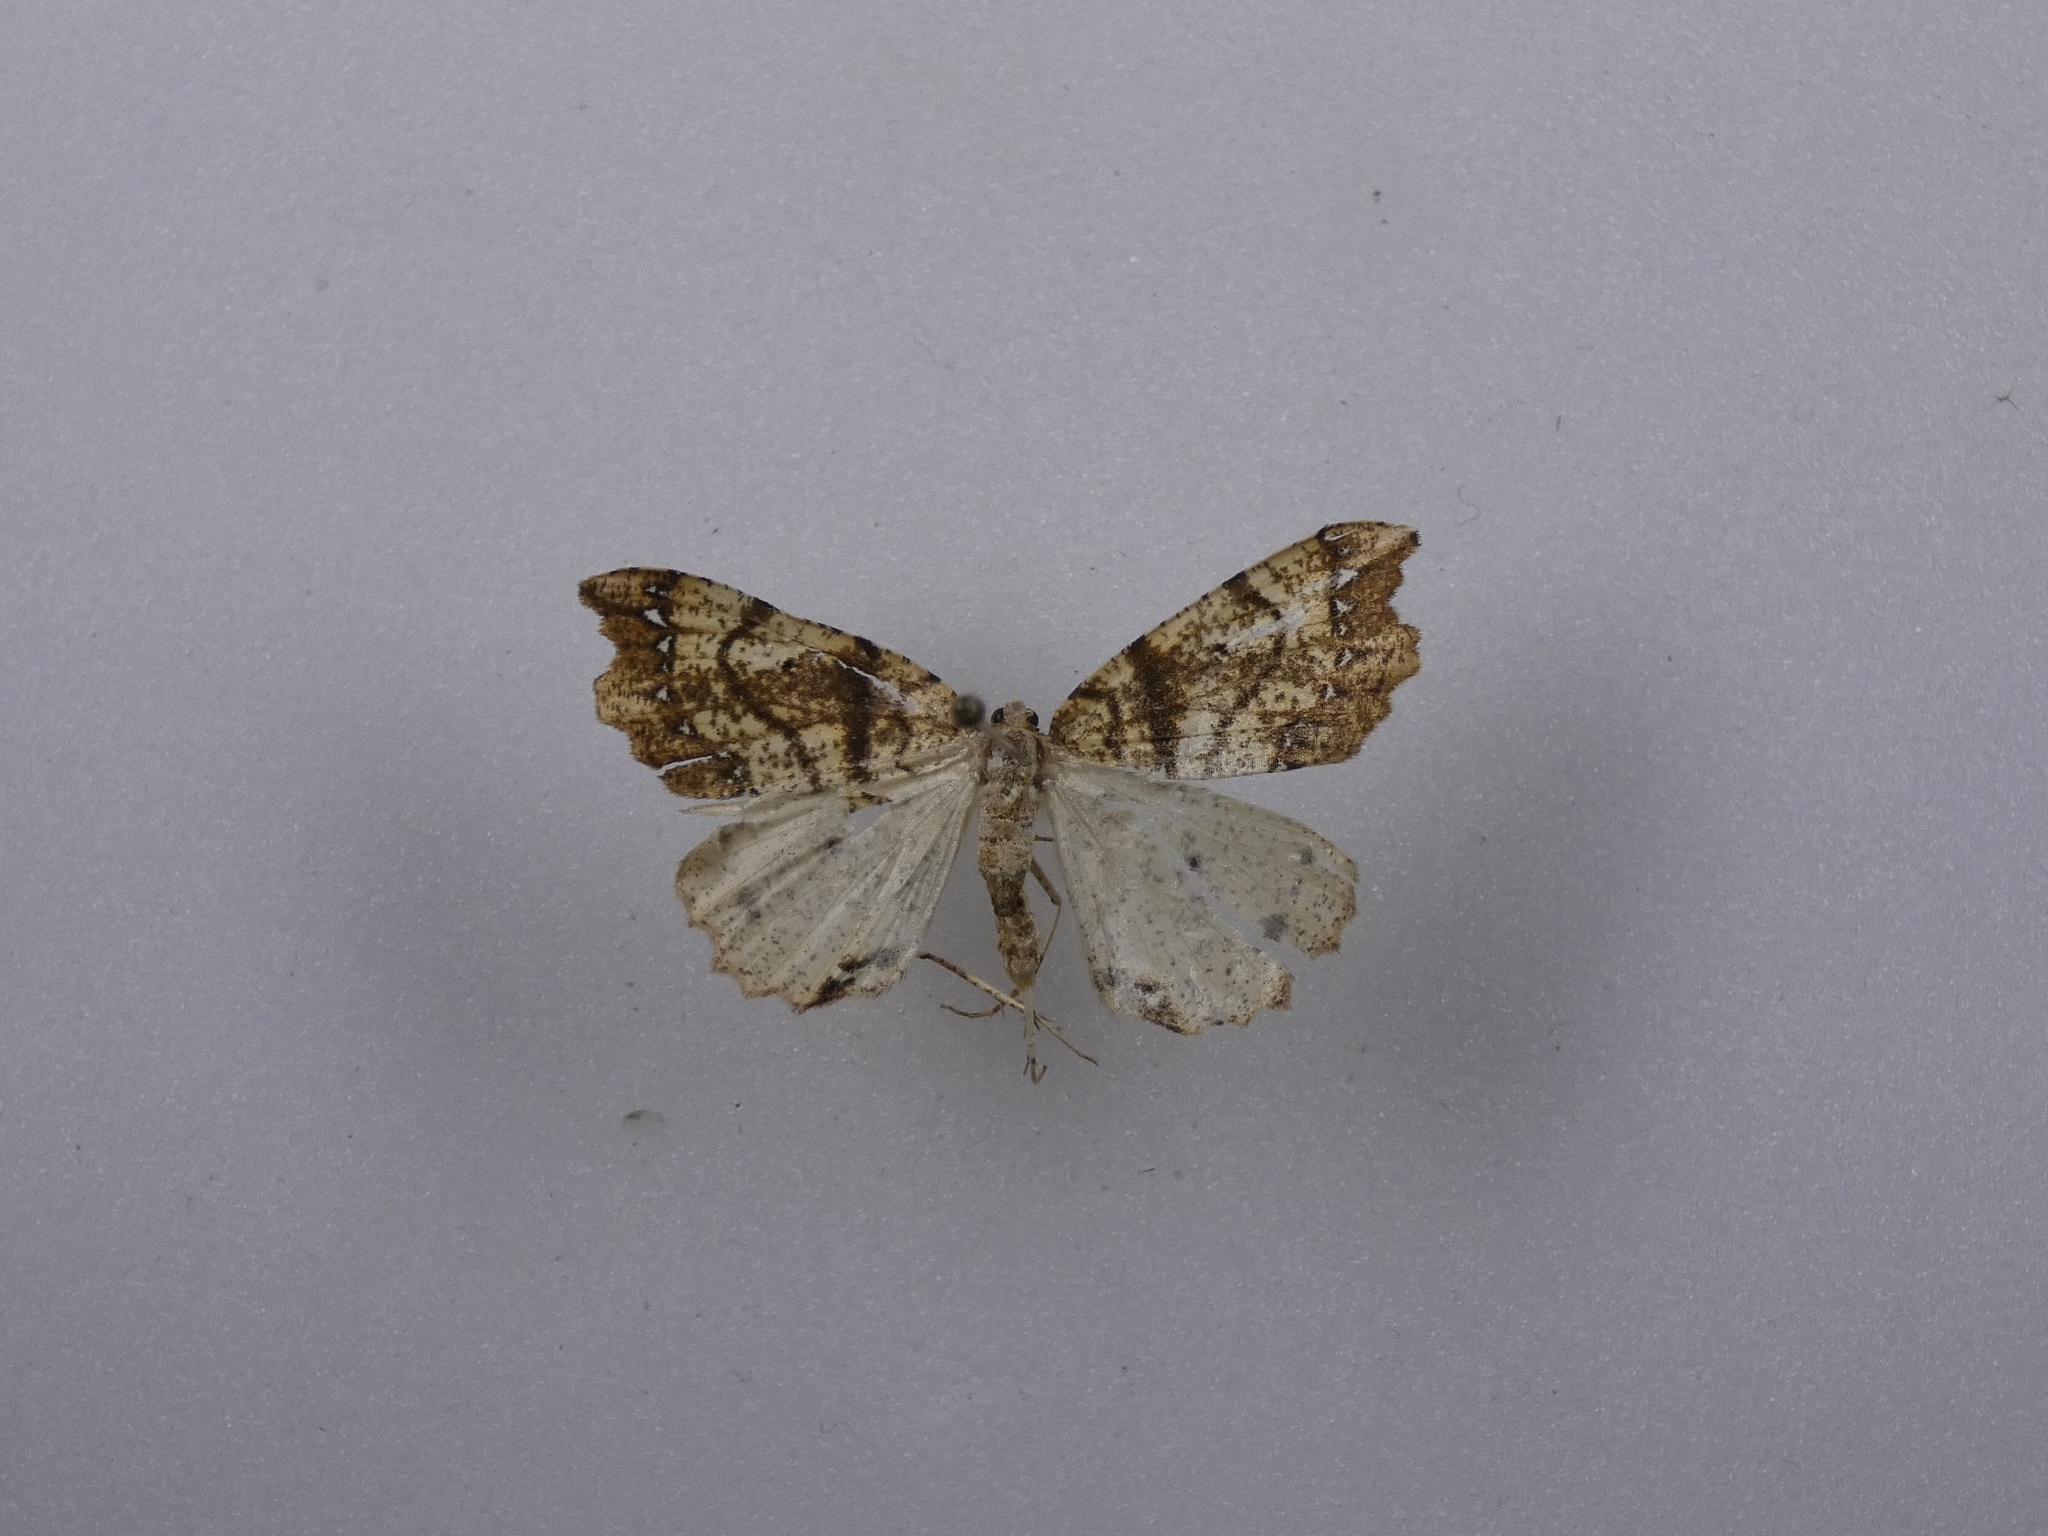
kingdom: Animalia
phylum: Arthropoda
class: Insecta
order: Lepidoptera
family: Geometridae
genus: Chalastra
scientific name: Chalastra pellurgata
